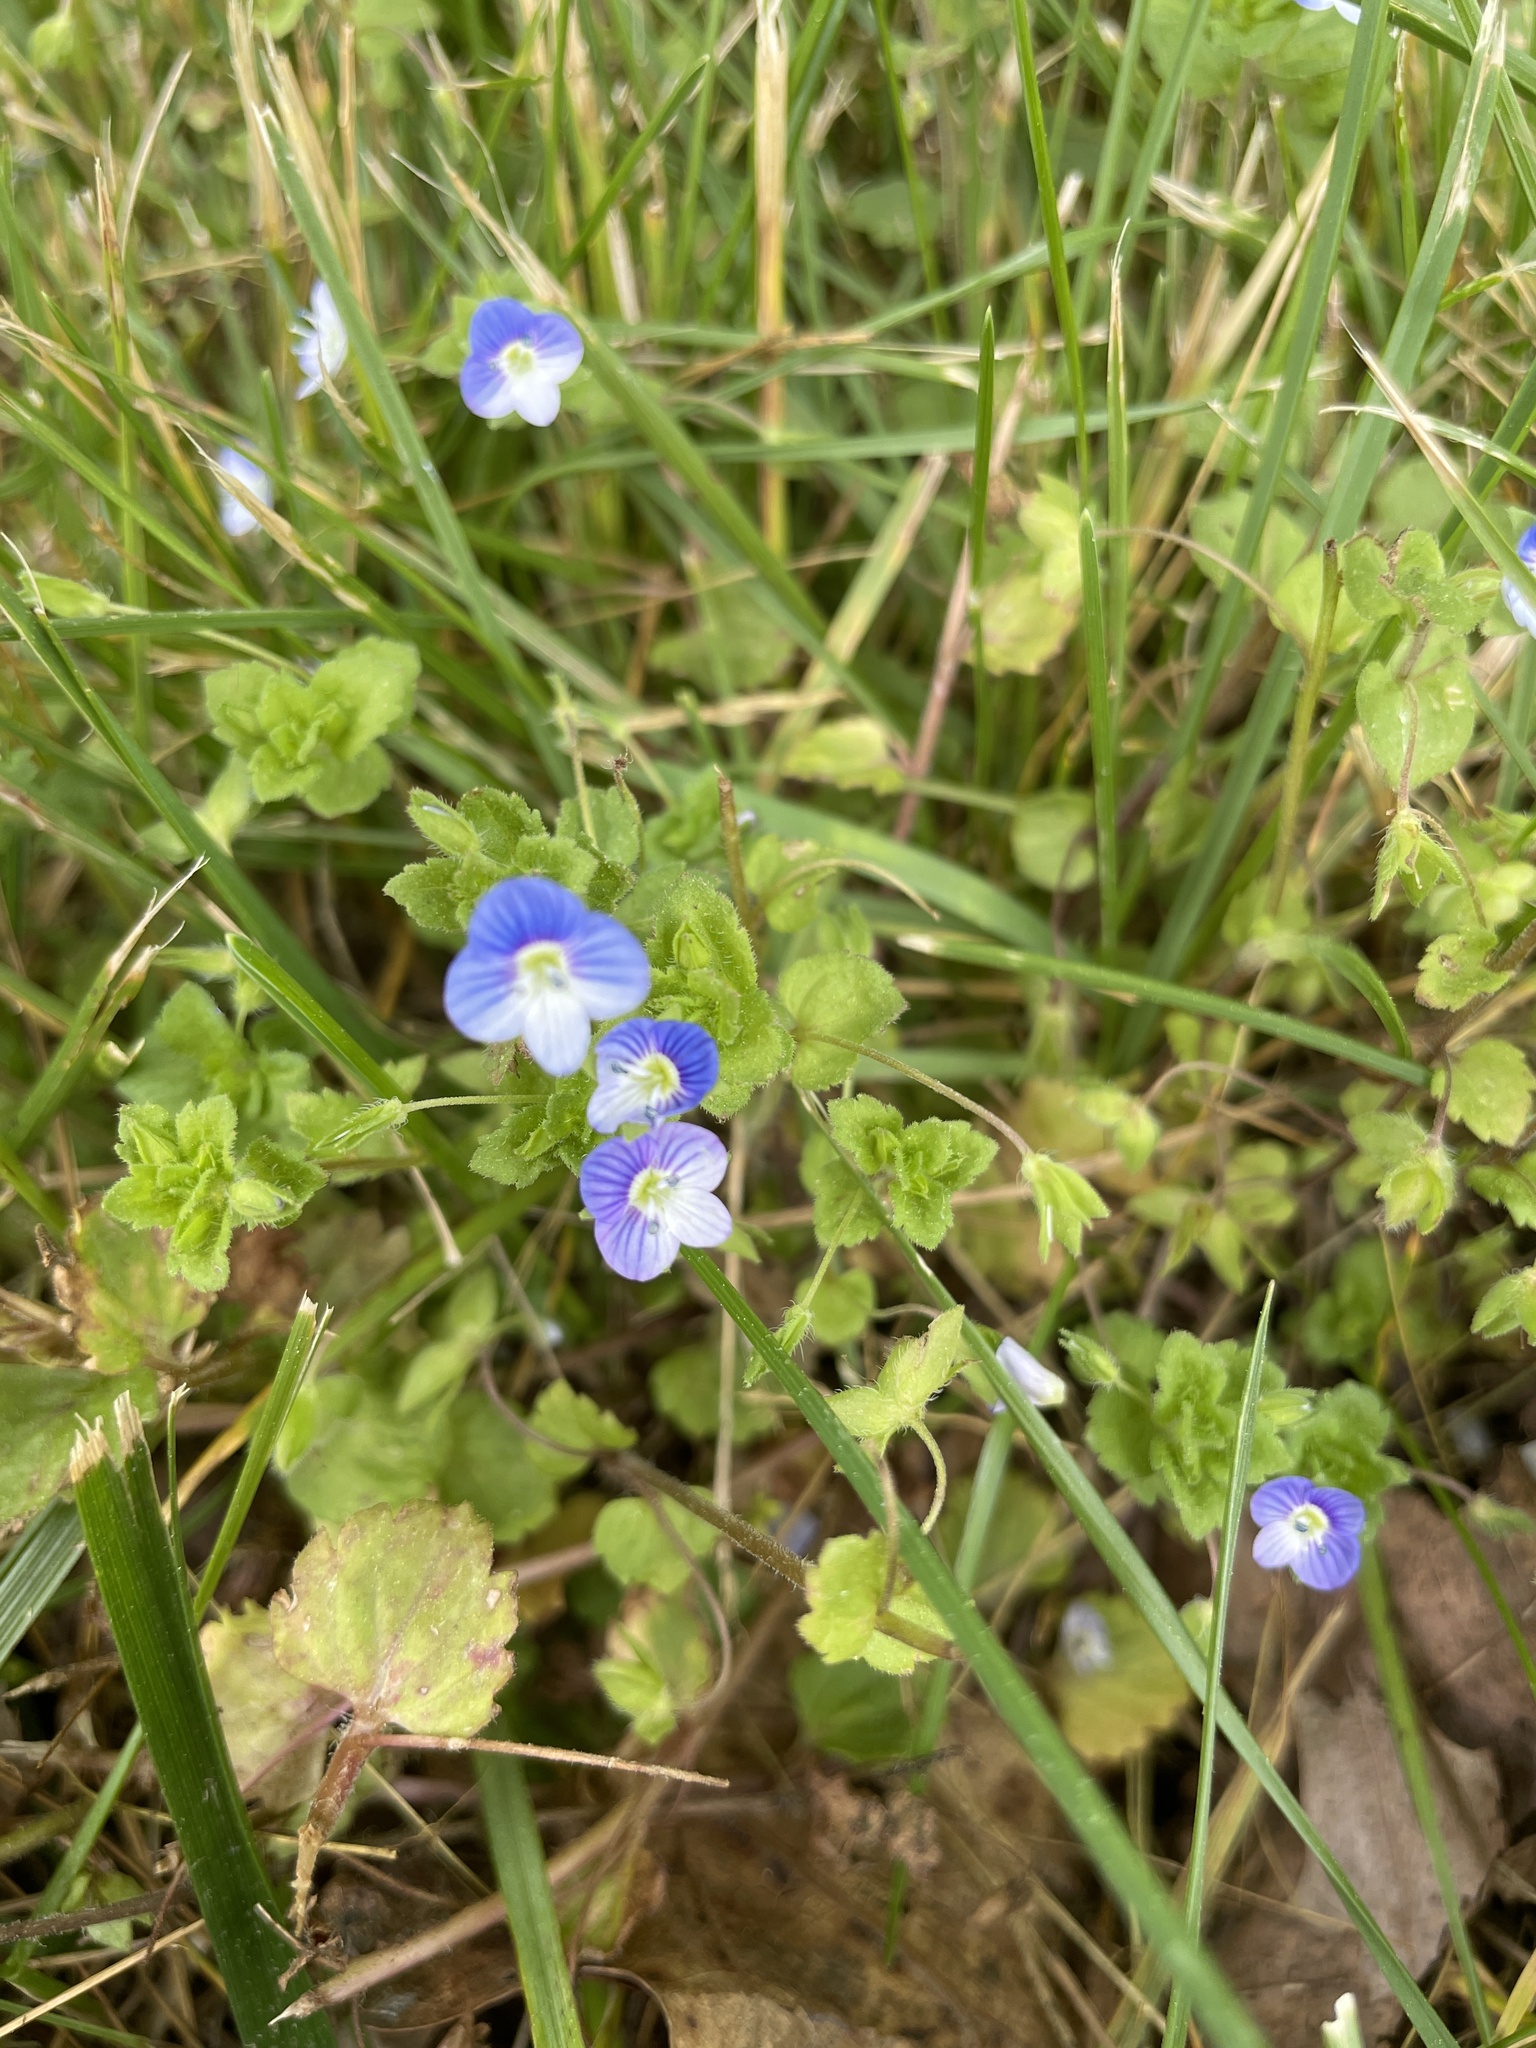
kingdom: Plantae
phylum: Tracheophyta
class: Magnoliopsida
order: Lamiales
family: Plantaginaceae
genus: Veronica
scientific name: Veronica persica
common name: Common field-speedwell
